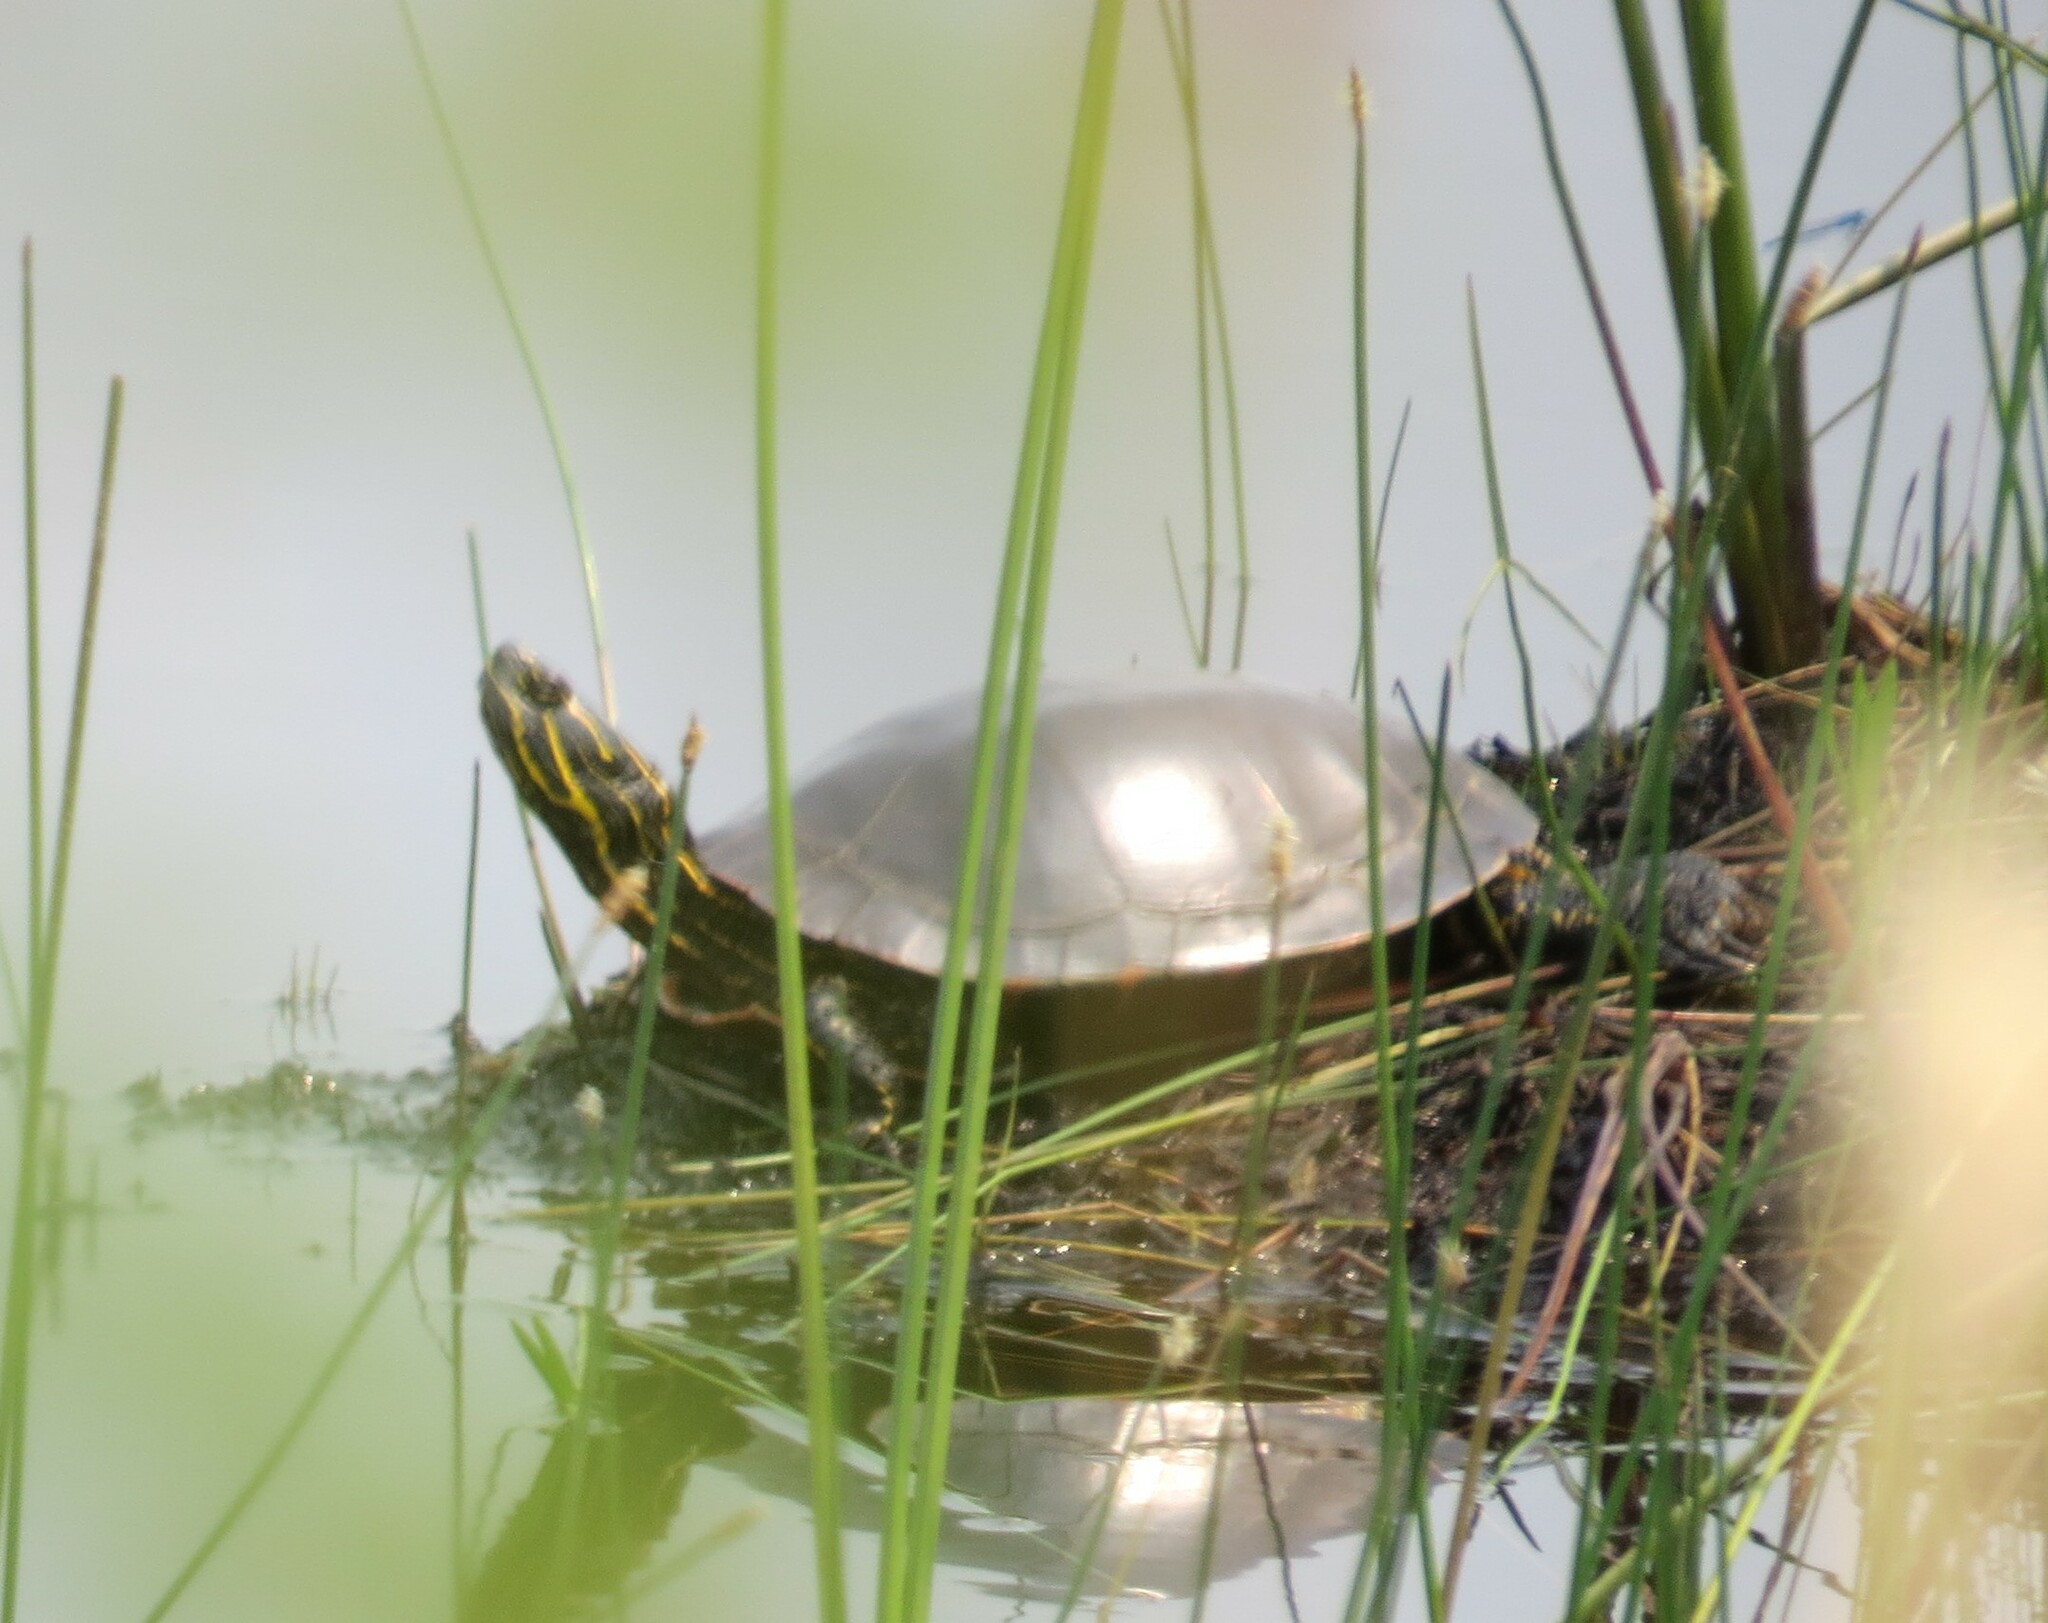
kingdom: Animalia
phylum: Chordata
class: Testudines
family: Emydidae
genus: Chrysemys
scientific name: Chrysemys picta
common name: Painted turtle
